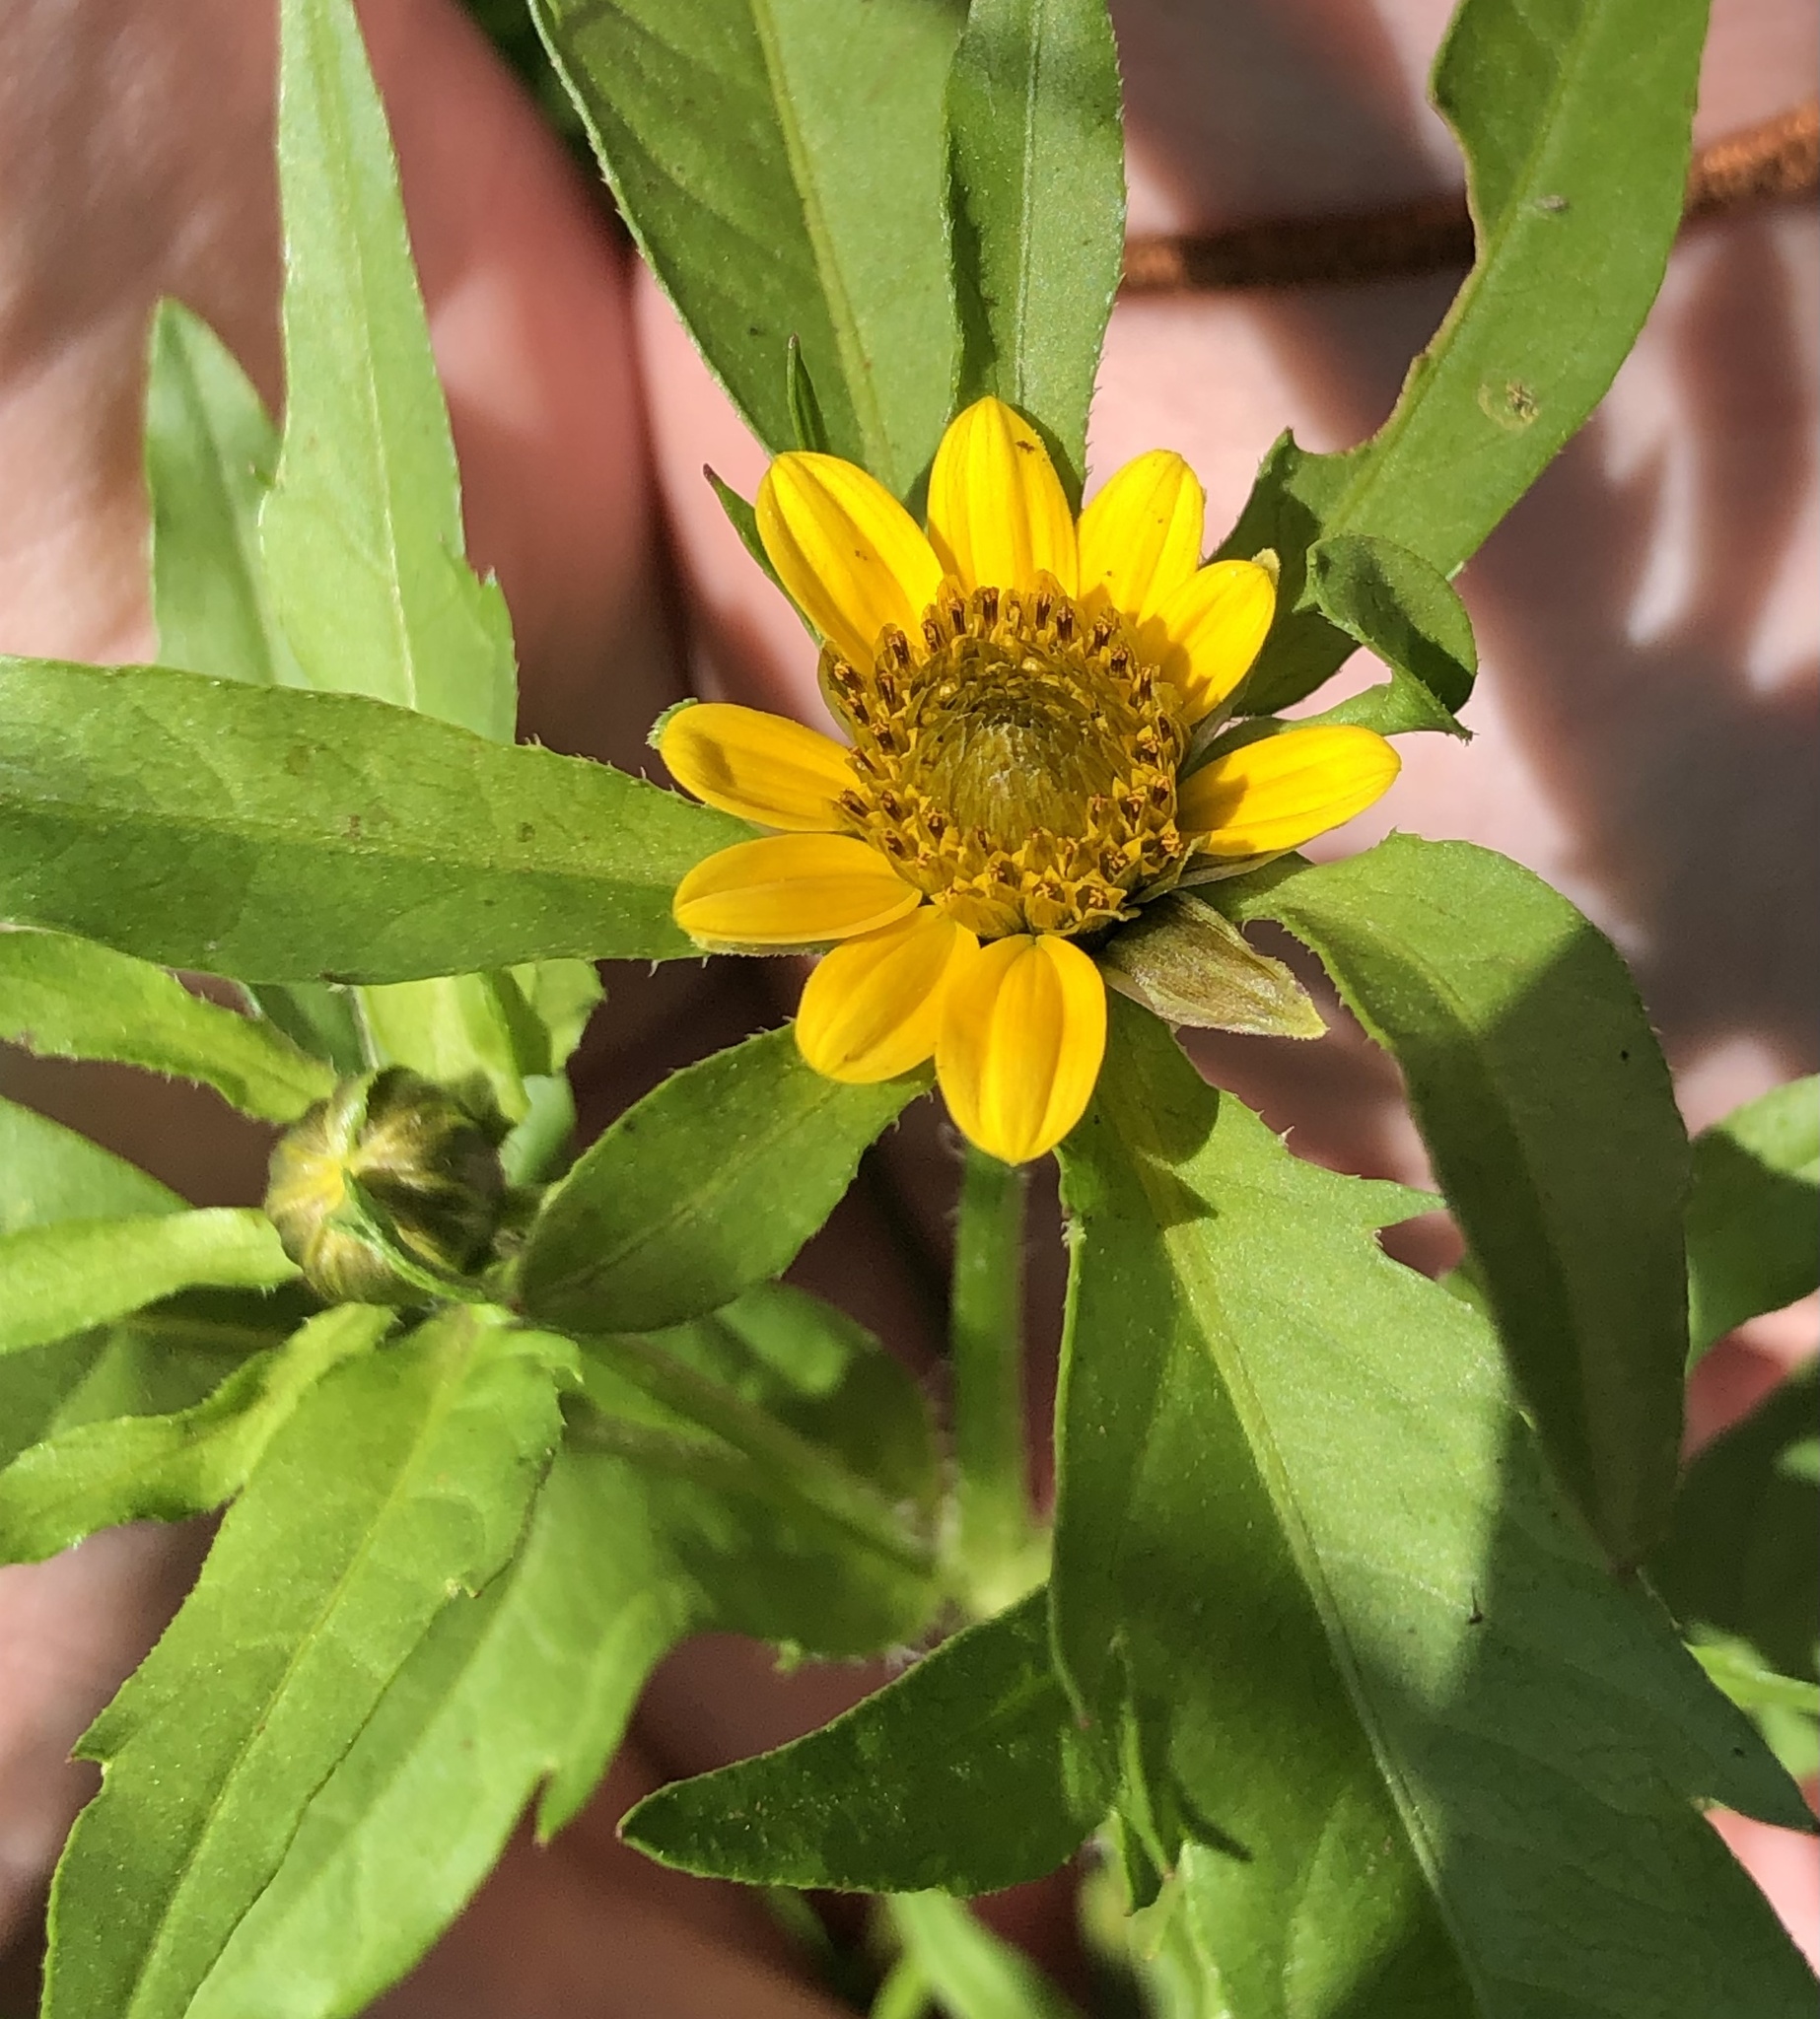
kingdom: Plantae
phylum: Tracheophyta
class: Magnoliopsida
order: Asterales
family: Asteraceae
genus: Bidens
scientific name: Bidens amplissima
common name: Vancouver island beggarticks
